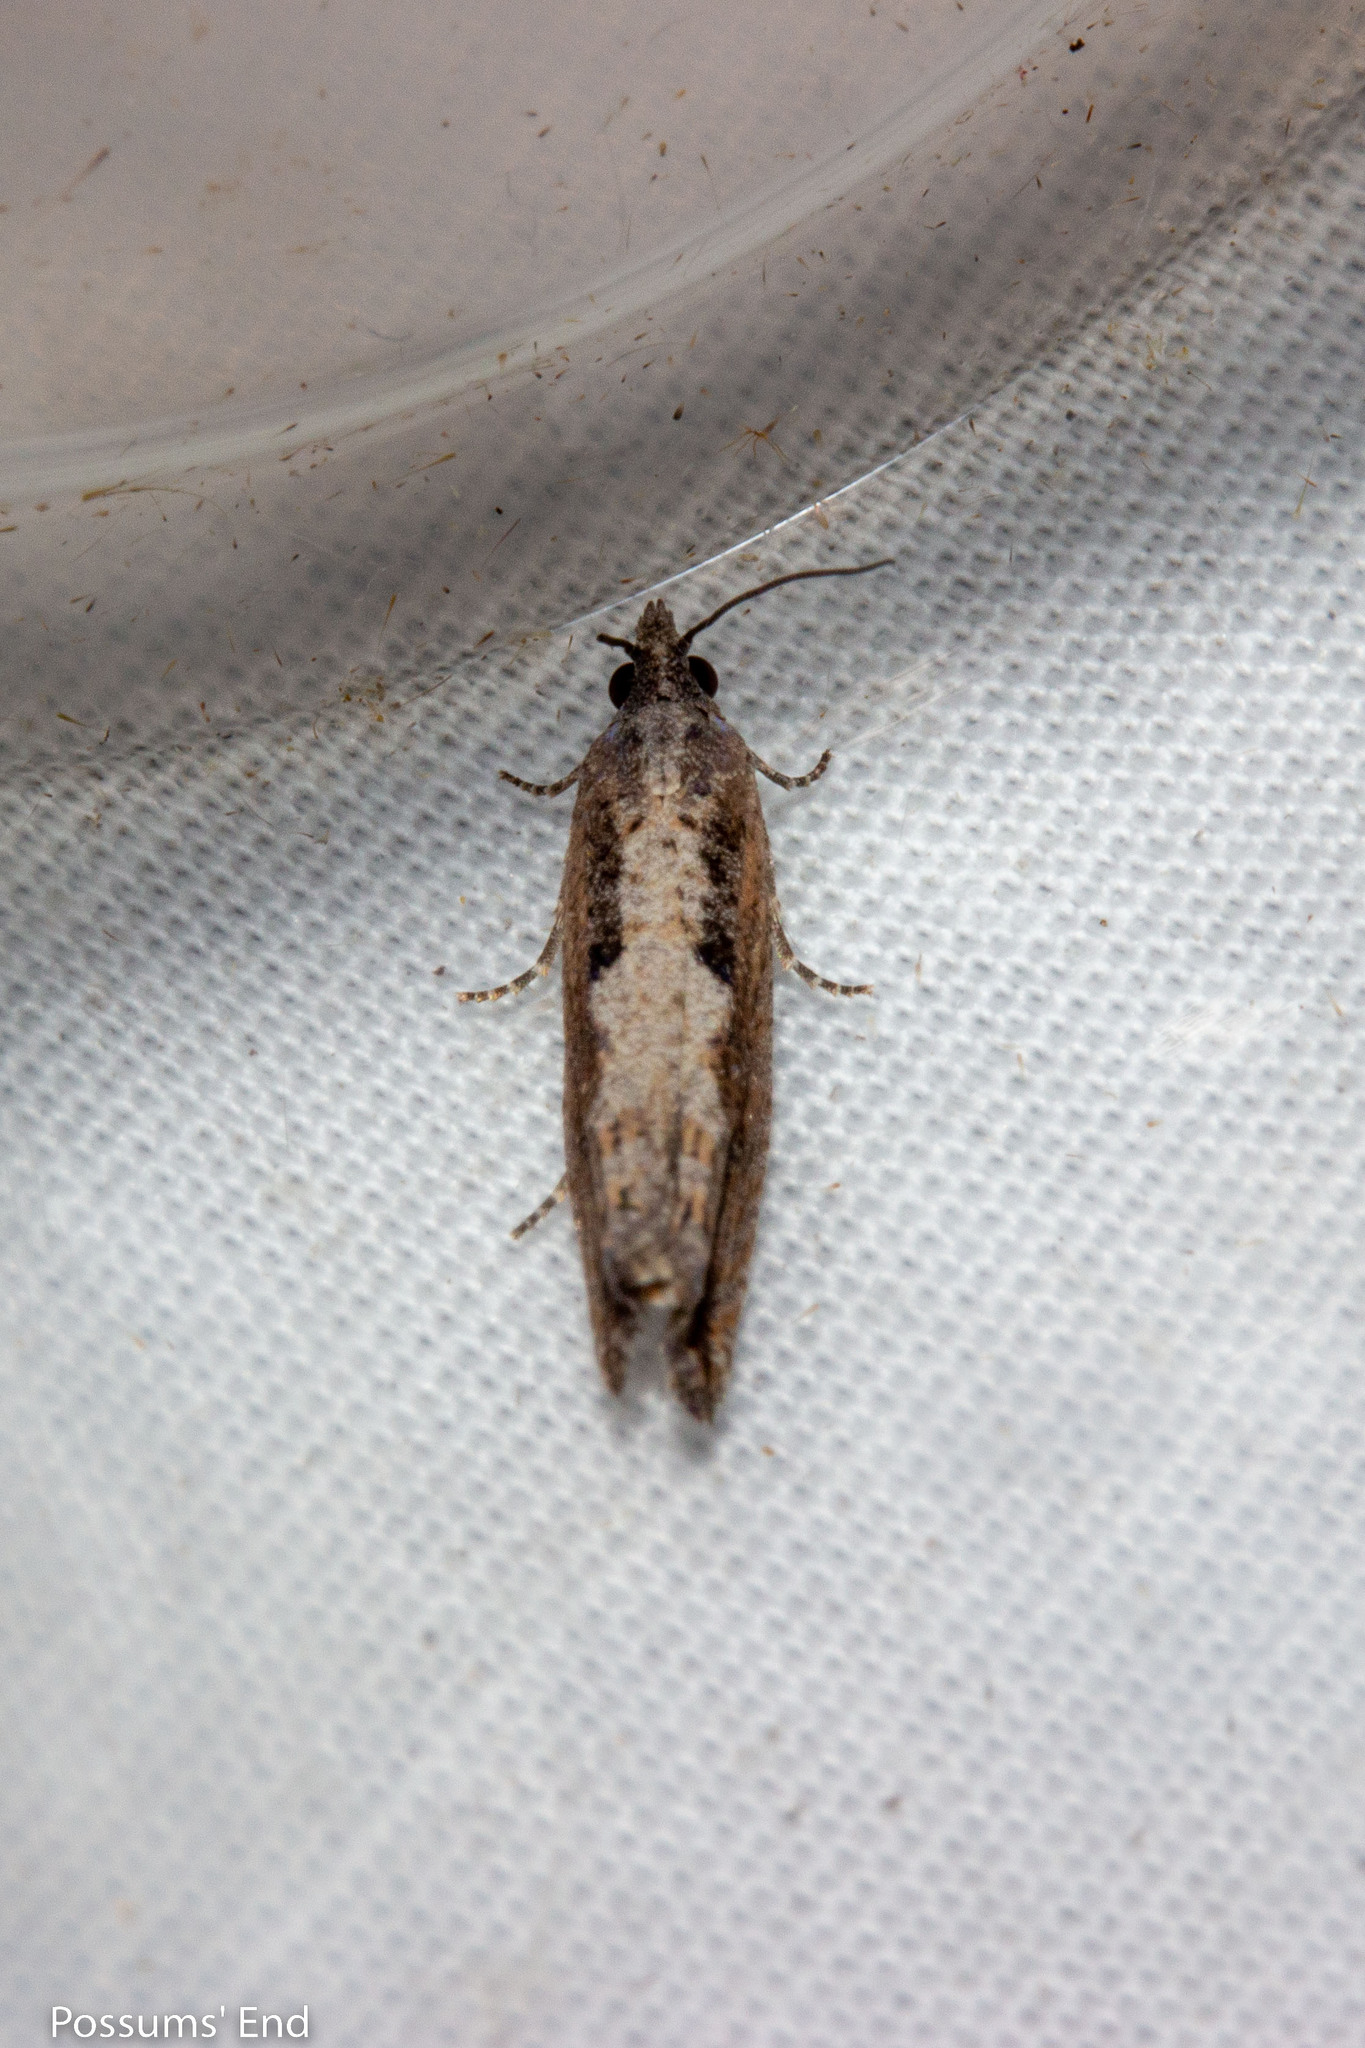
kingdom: Animalia
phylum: Arthropoda
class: Insecta
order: Lepidoptera
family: Tortricidae
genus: Strepsicrates
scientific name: Strepsicrates macropetana
